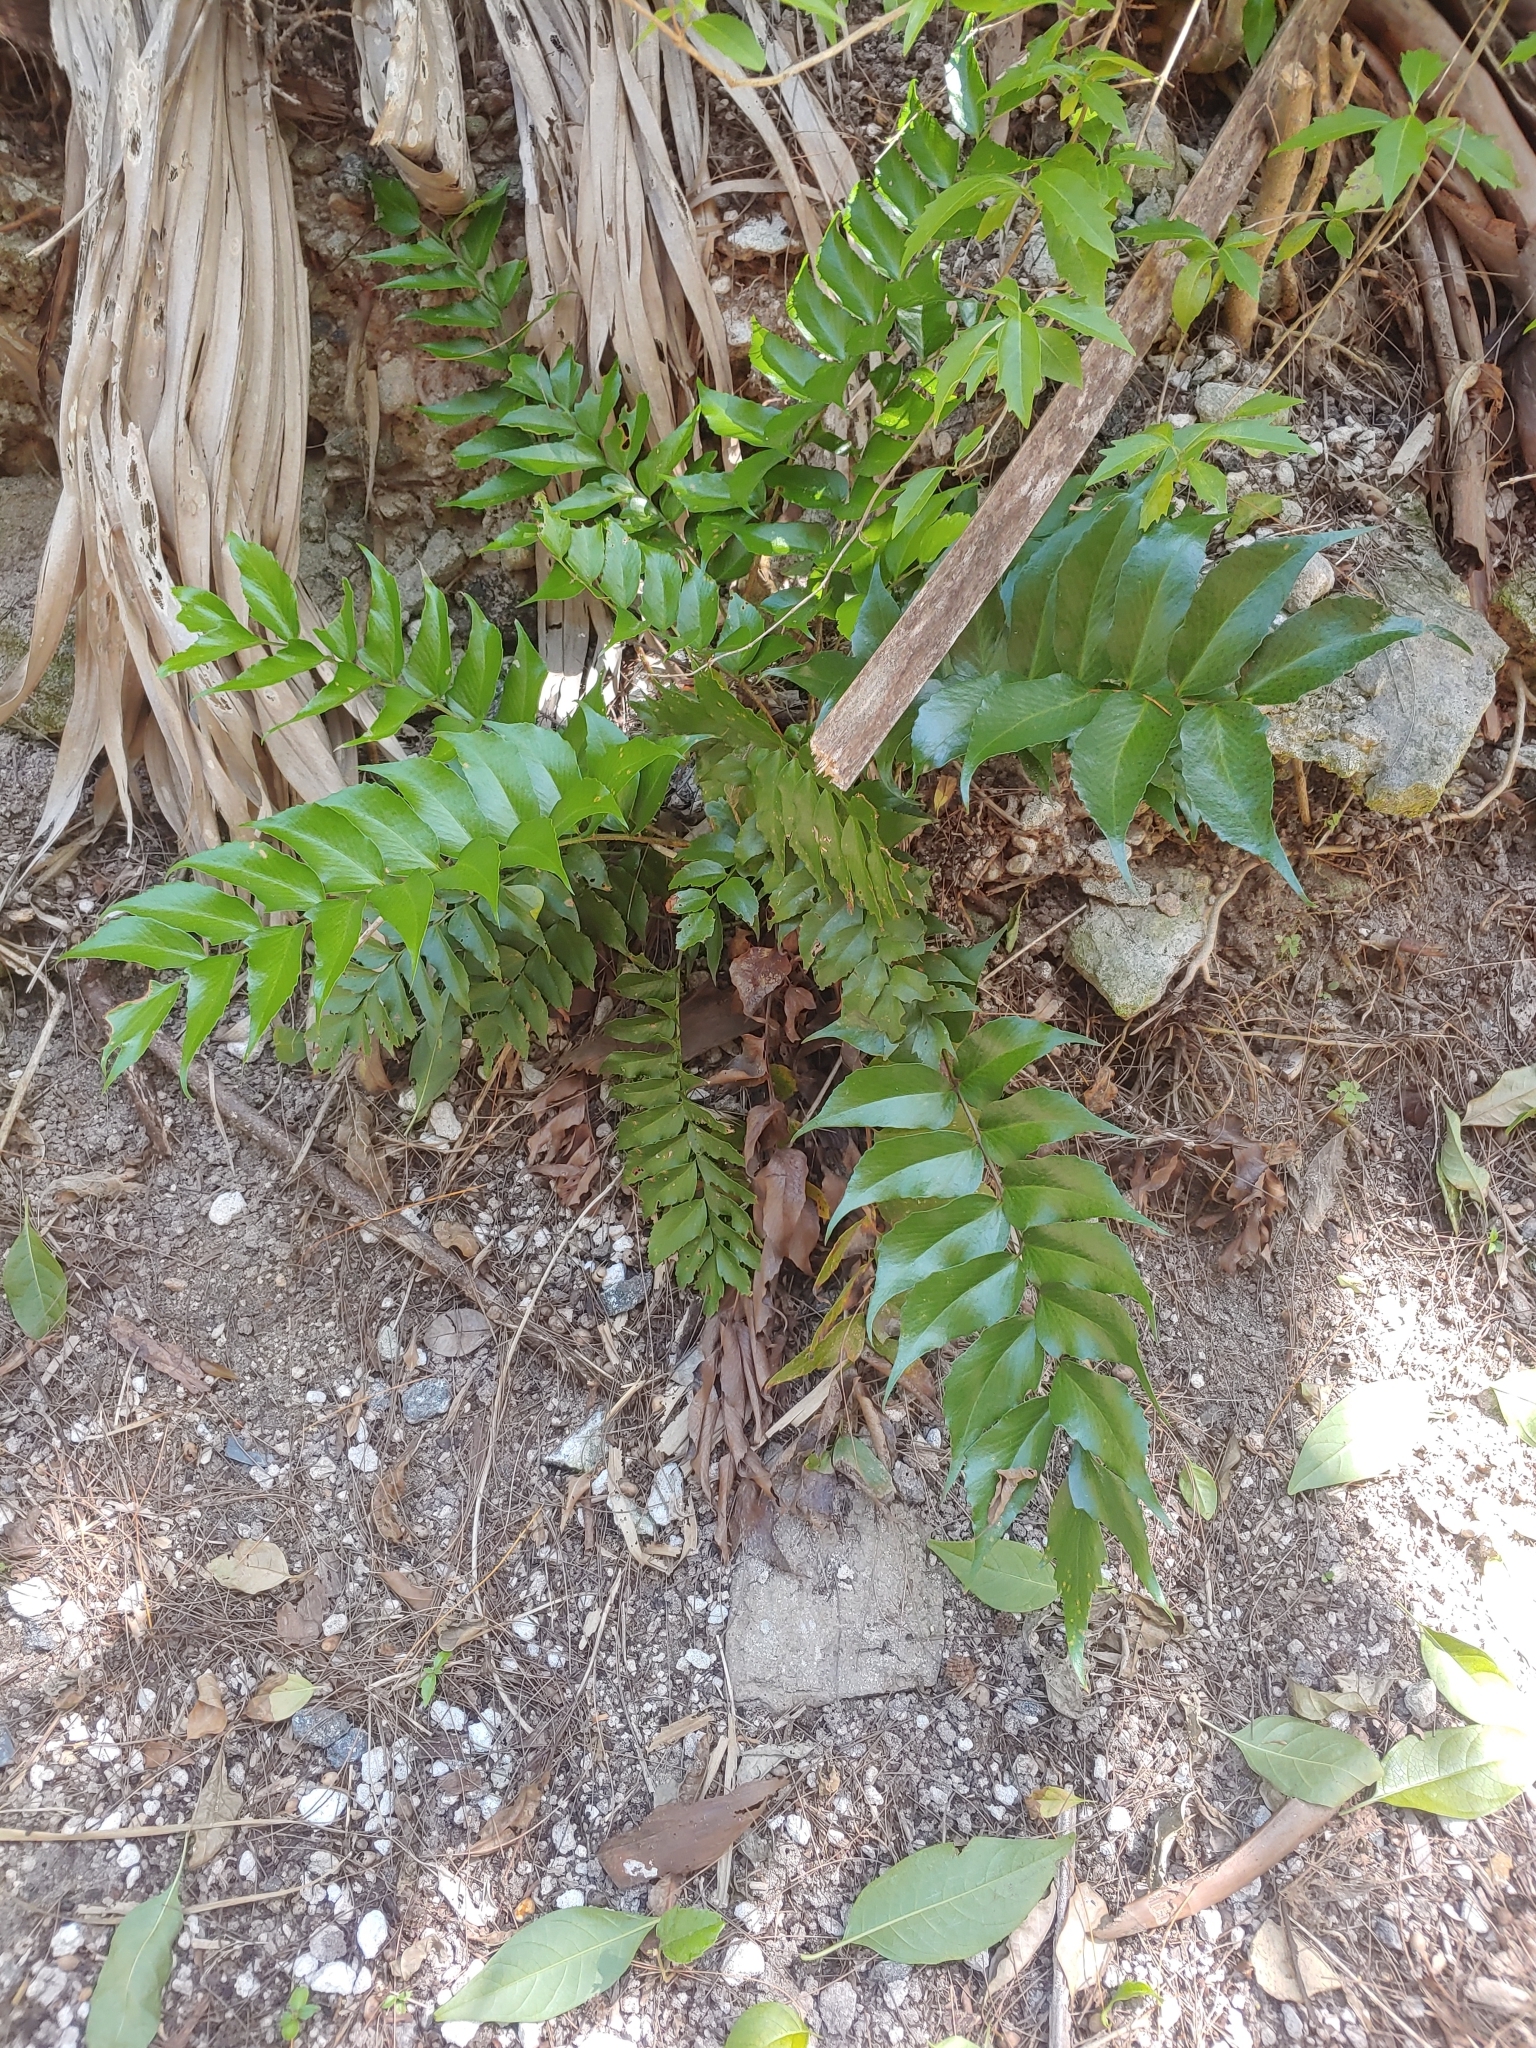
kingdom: Plantae
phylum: Tracheophyta
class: Polypodiopsida
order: Polypodiales
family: Dryopteridaceae
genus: Cyrtomium
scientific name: Cyrtomium falcatum
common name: House holly-fern
